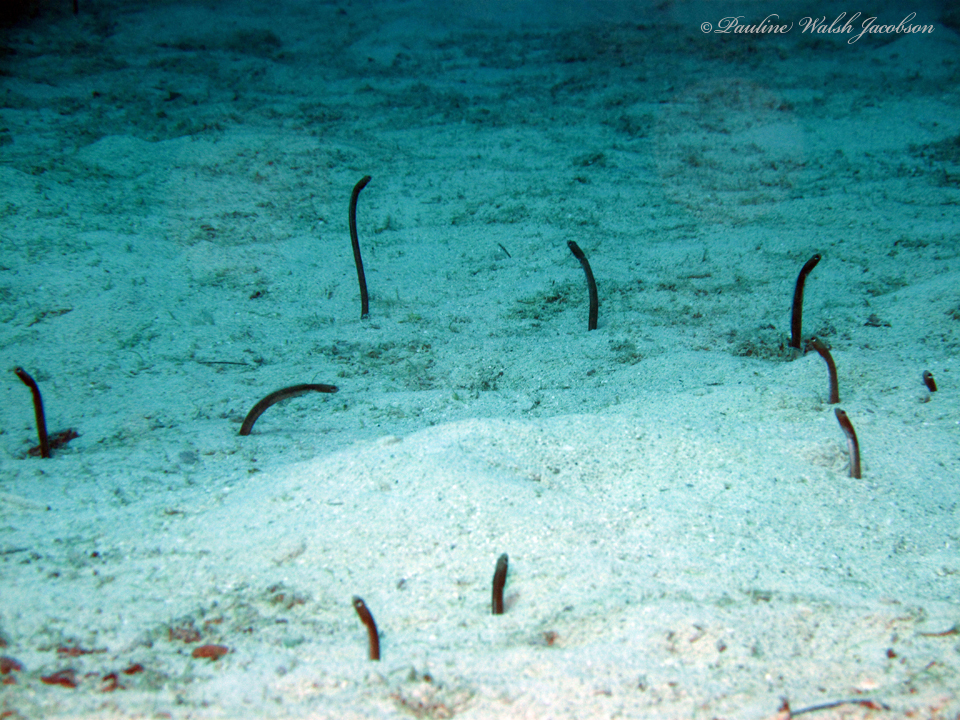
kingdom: Animalia
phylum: Chordata
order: Anguilliformes
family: Congridae
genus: Heteroconger
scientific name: Heteroconger longissimus
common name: Garden eel
